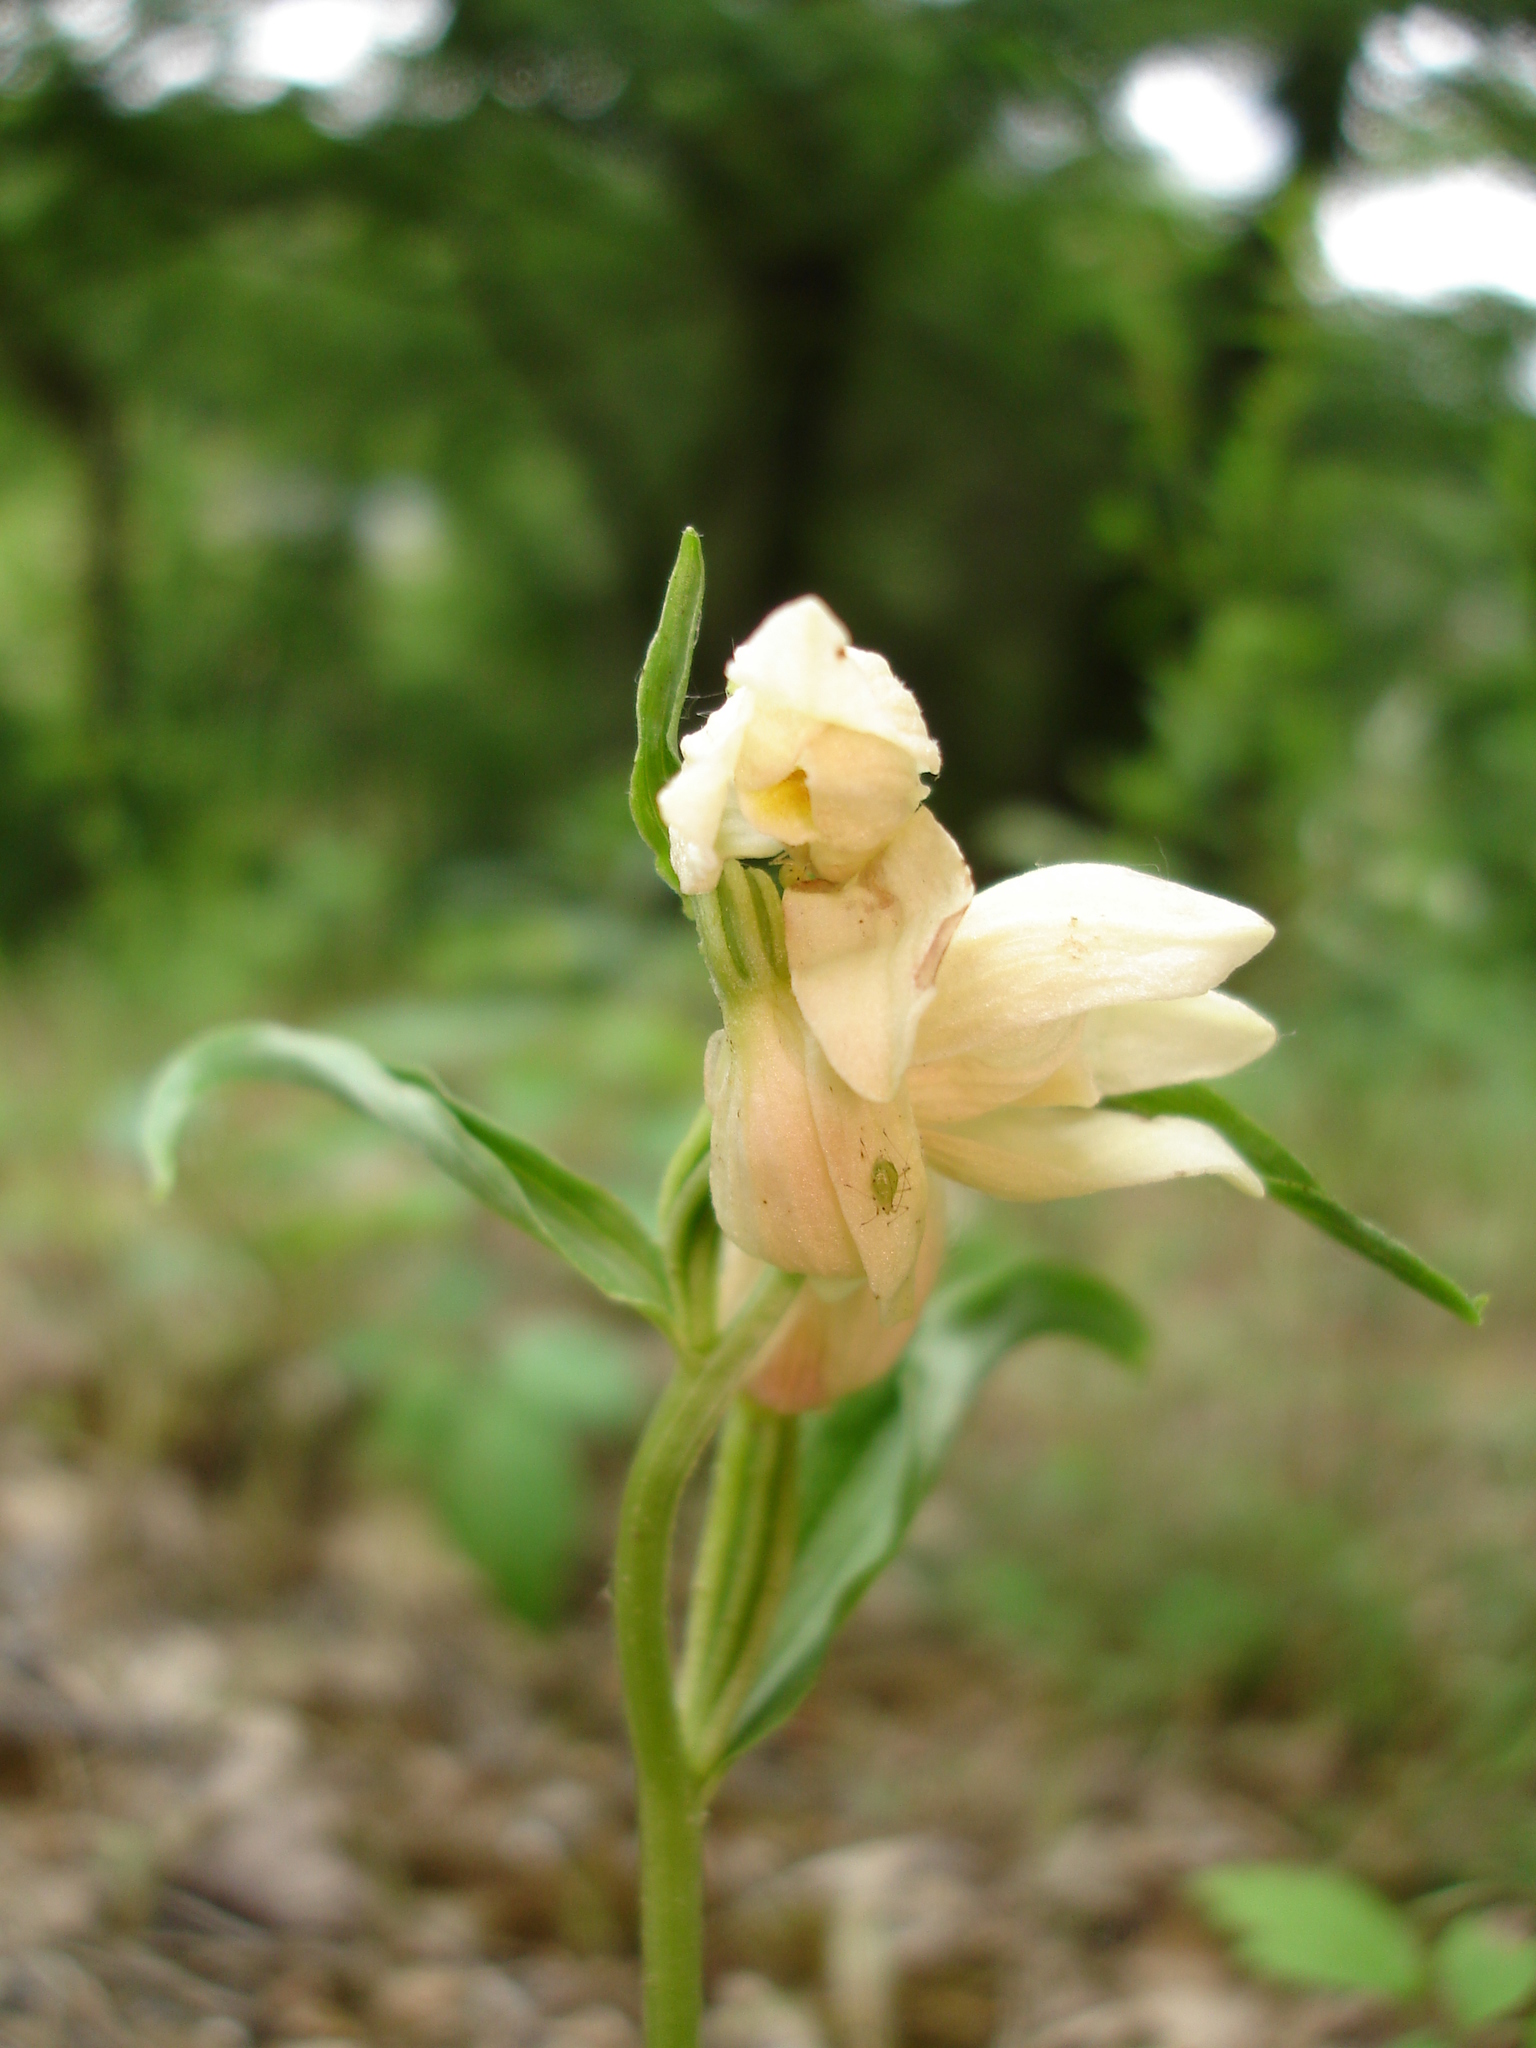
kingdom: Plantae
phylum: Tracheophyta
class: Liliopsida
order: Asparagales
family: Orchidaceae
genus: Cephalanthera
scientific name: Cephalanthera damasonium
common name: White helleborine
